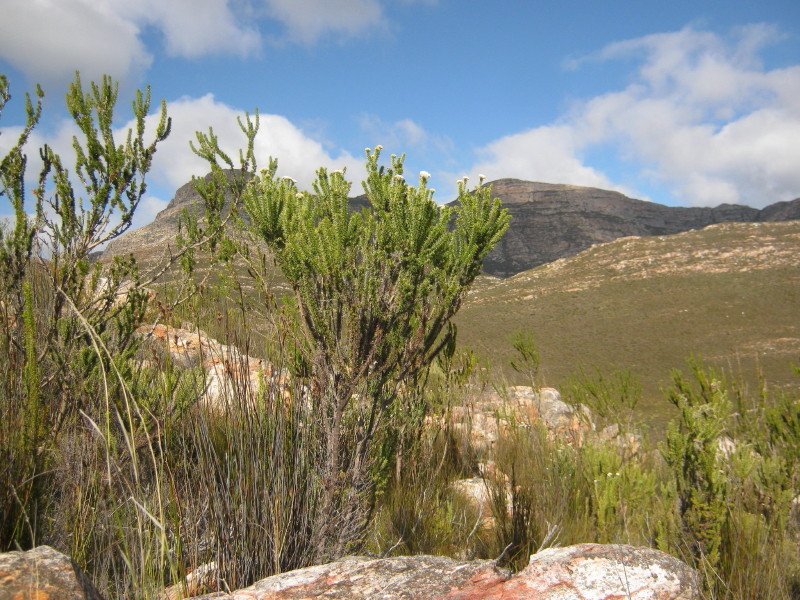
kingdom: Plantae
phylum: Tracheophyta
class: Magnoliopsida
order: Asterales
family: Asteraceae
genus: Metalasia
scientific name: Metalasia acuta
